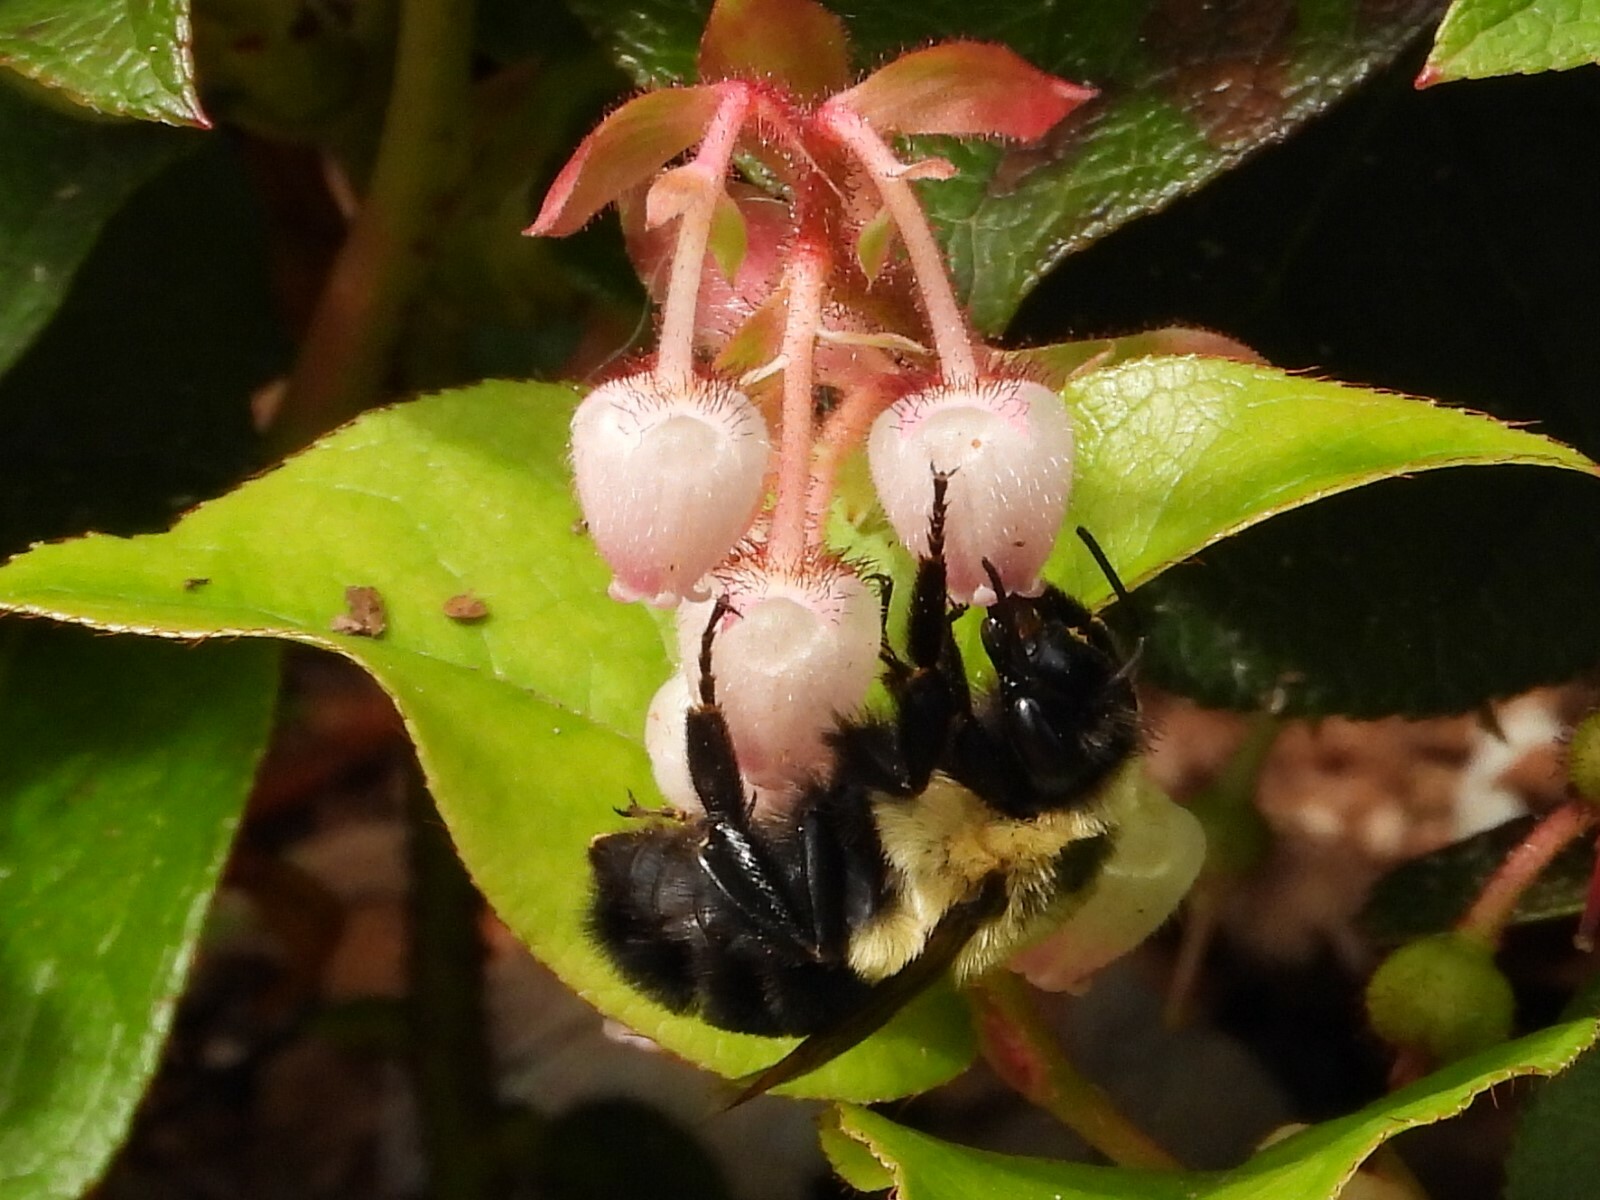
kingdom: Animalia
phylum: Arthropoda
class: Insecta
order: Hymenoptera
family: Apidae
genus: Bombus
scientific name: Bombus impatiens
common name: Common eastern bumble bee
